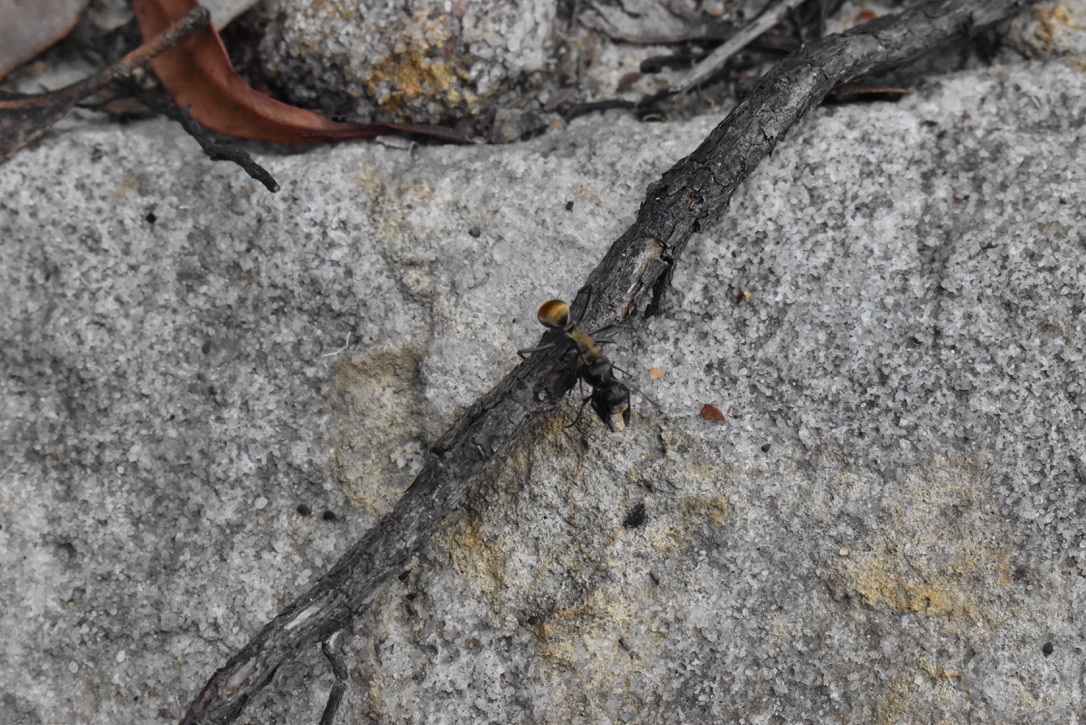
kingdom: Animalia
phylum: Arthropoda
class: Insecta
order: Hymenoptera
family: Formicidae
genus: Polyrhachis
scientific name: Polyrhachis ammon
